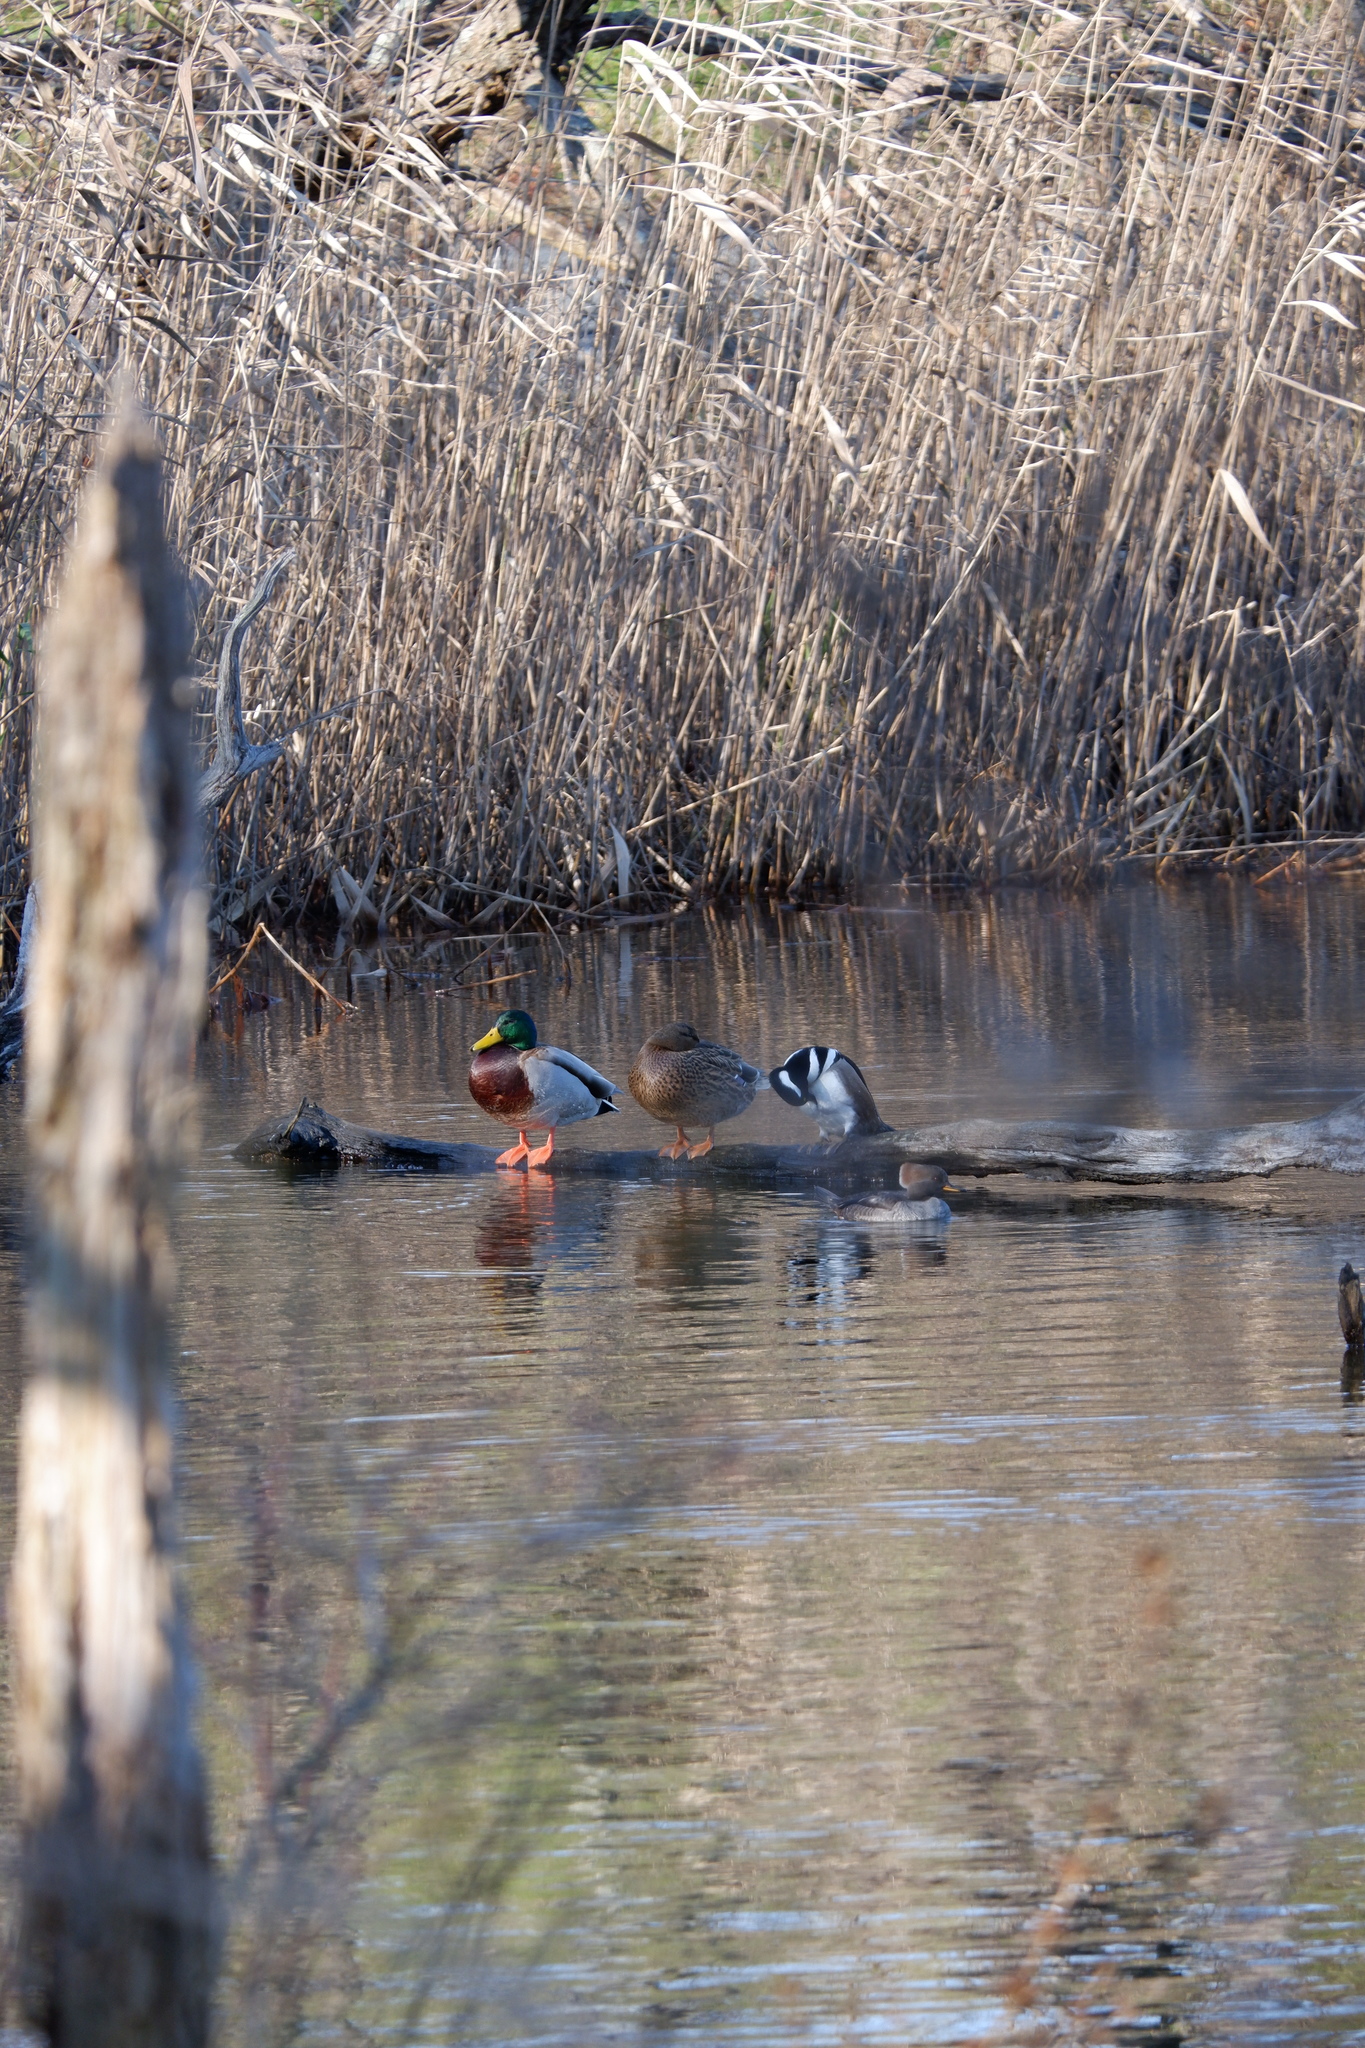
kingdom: Animalia
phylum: Chordata
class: Aves
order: Anseriformes
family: Anatidae
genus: Anas
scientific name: Anas platyrhynchos
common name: Mallard
